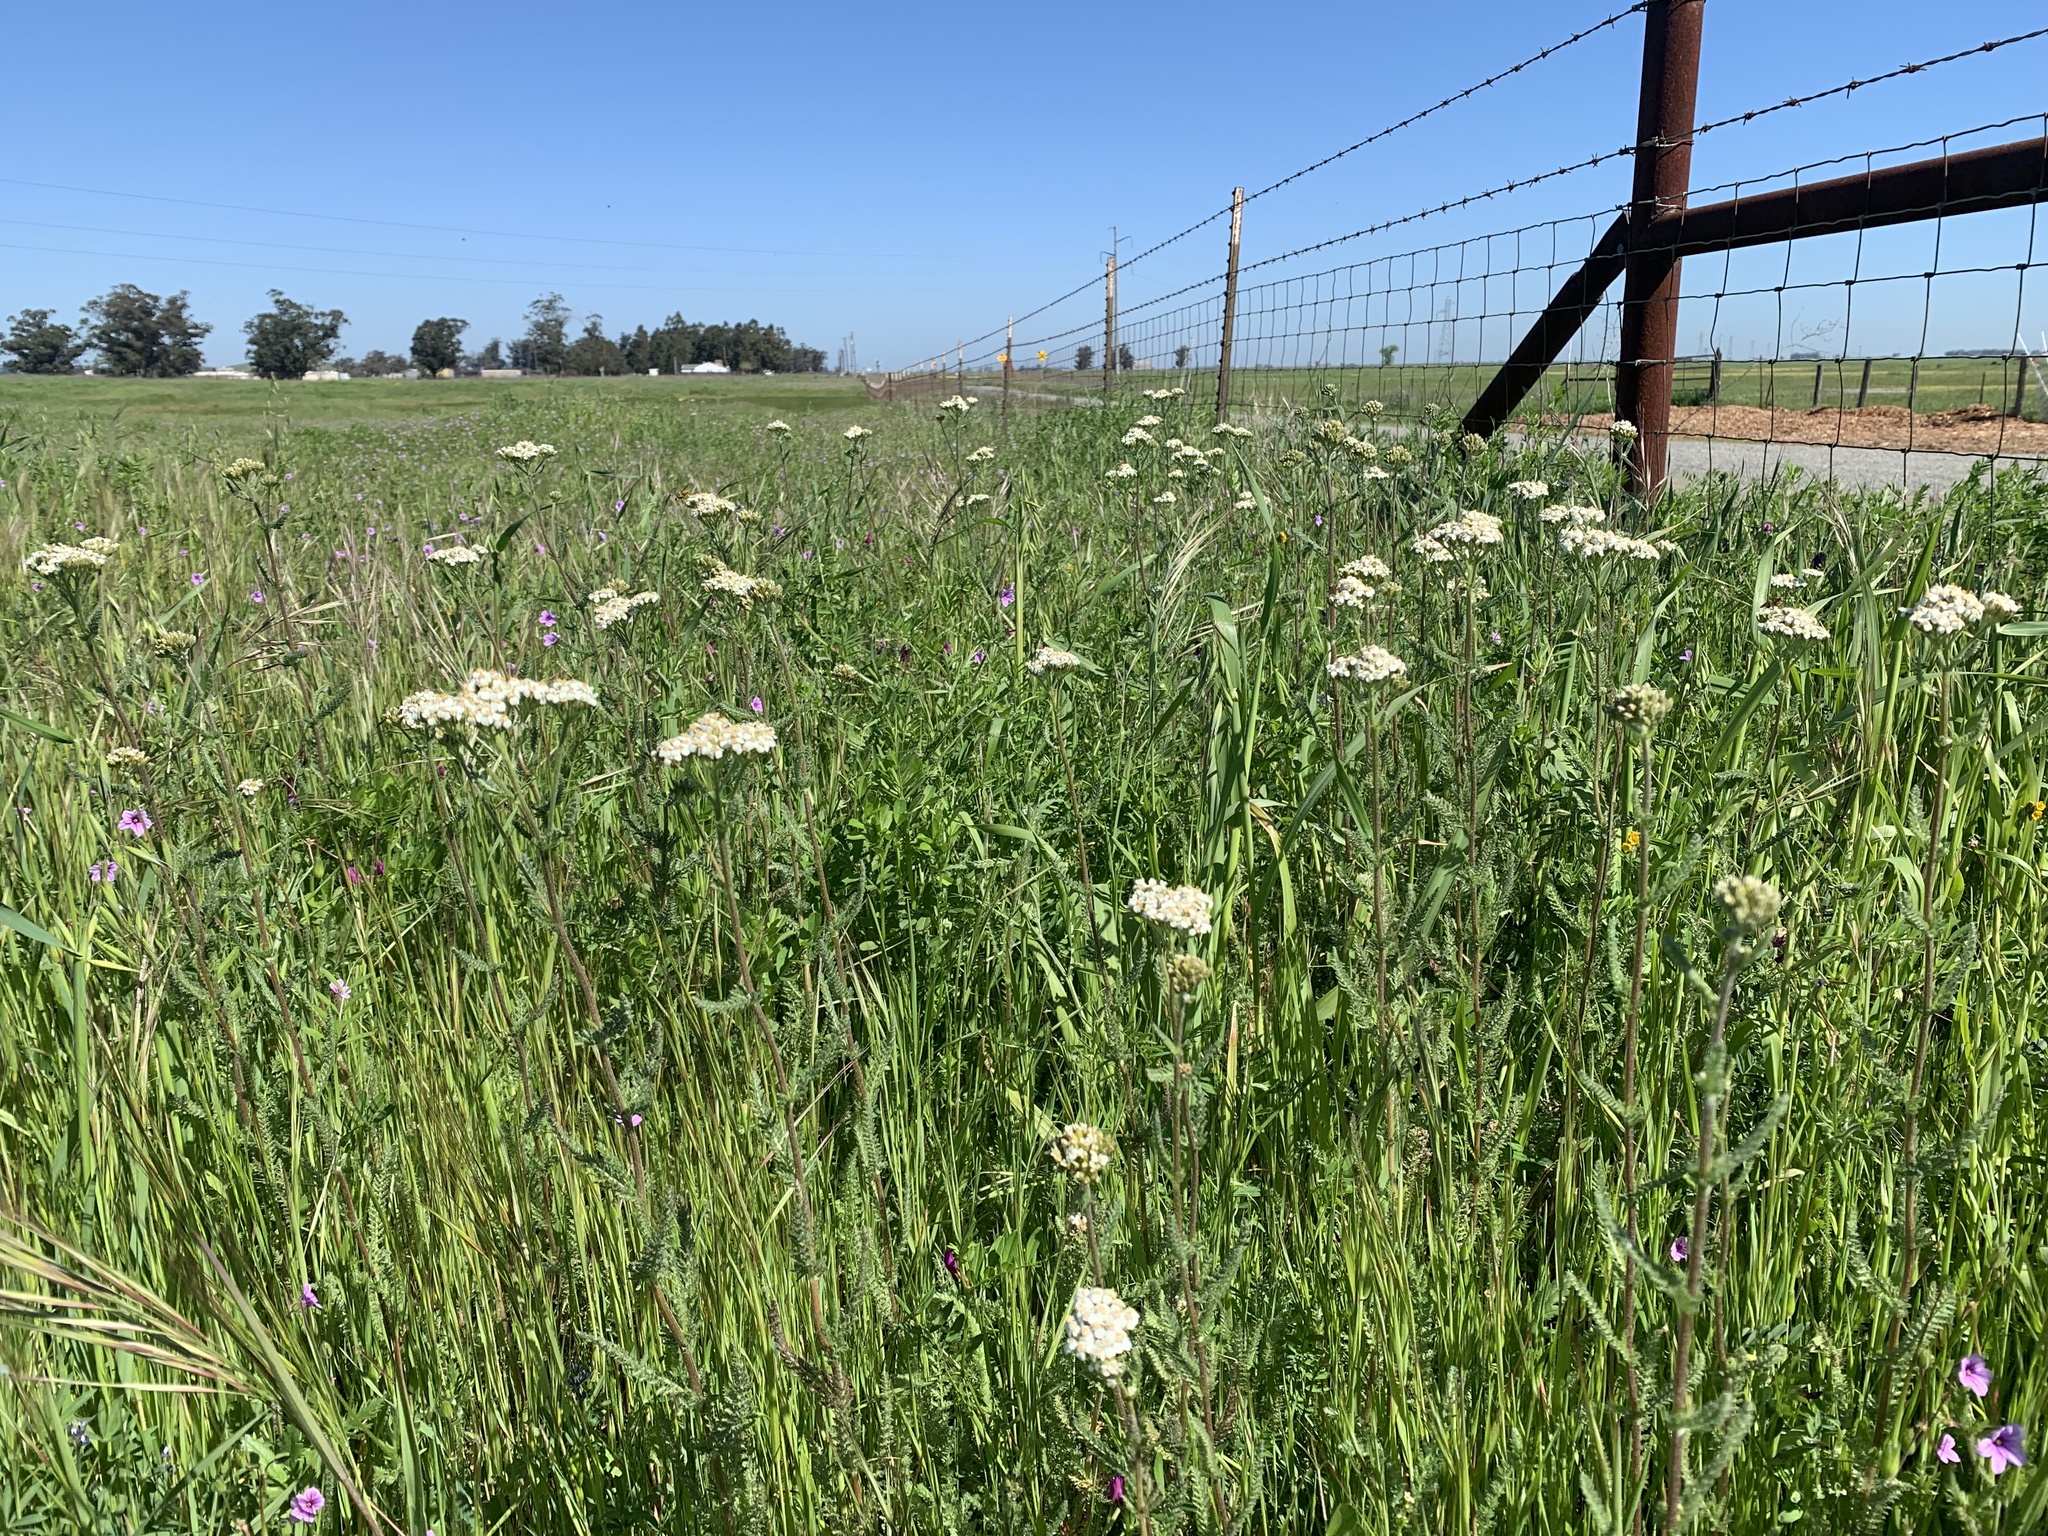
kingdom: Plantae
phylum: Tracheophyta
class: Magnoliopsida
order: Asterales
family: Asteraceae
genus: Achillea
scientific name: Achillea millefolium
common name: Yarrow
